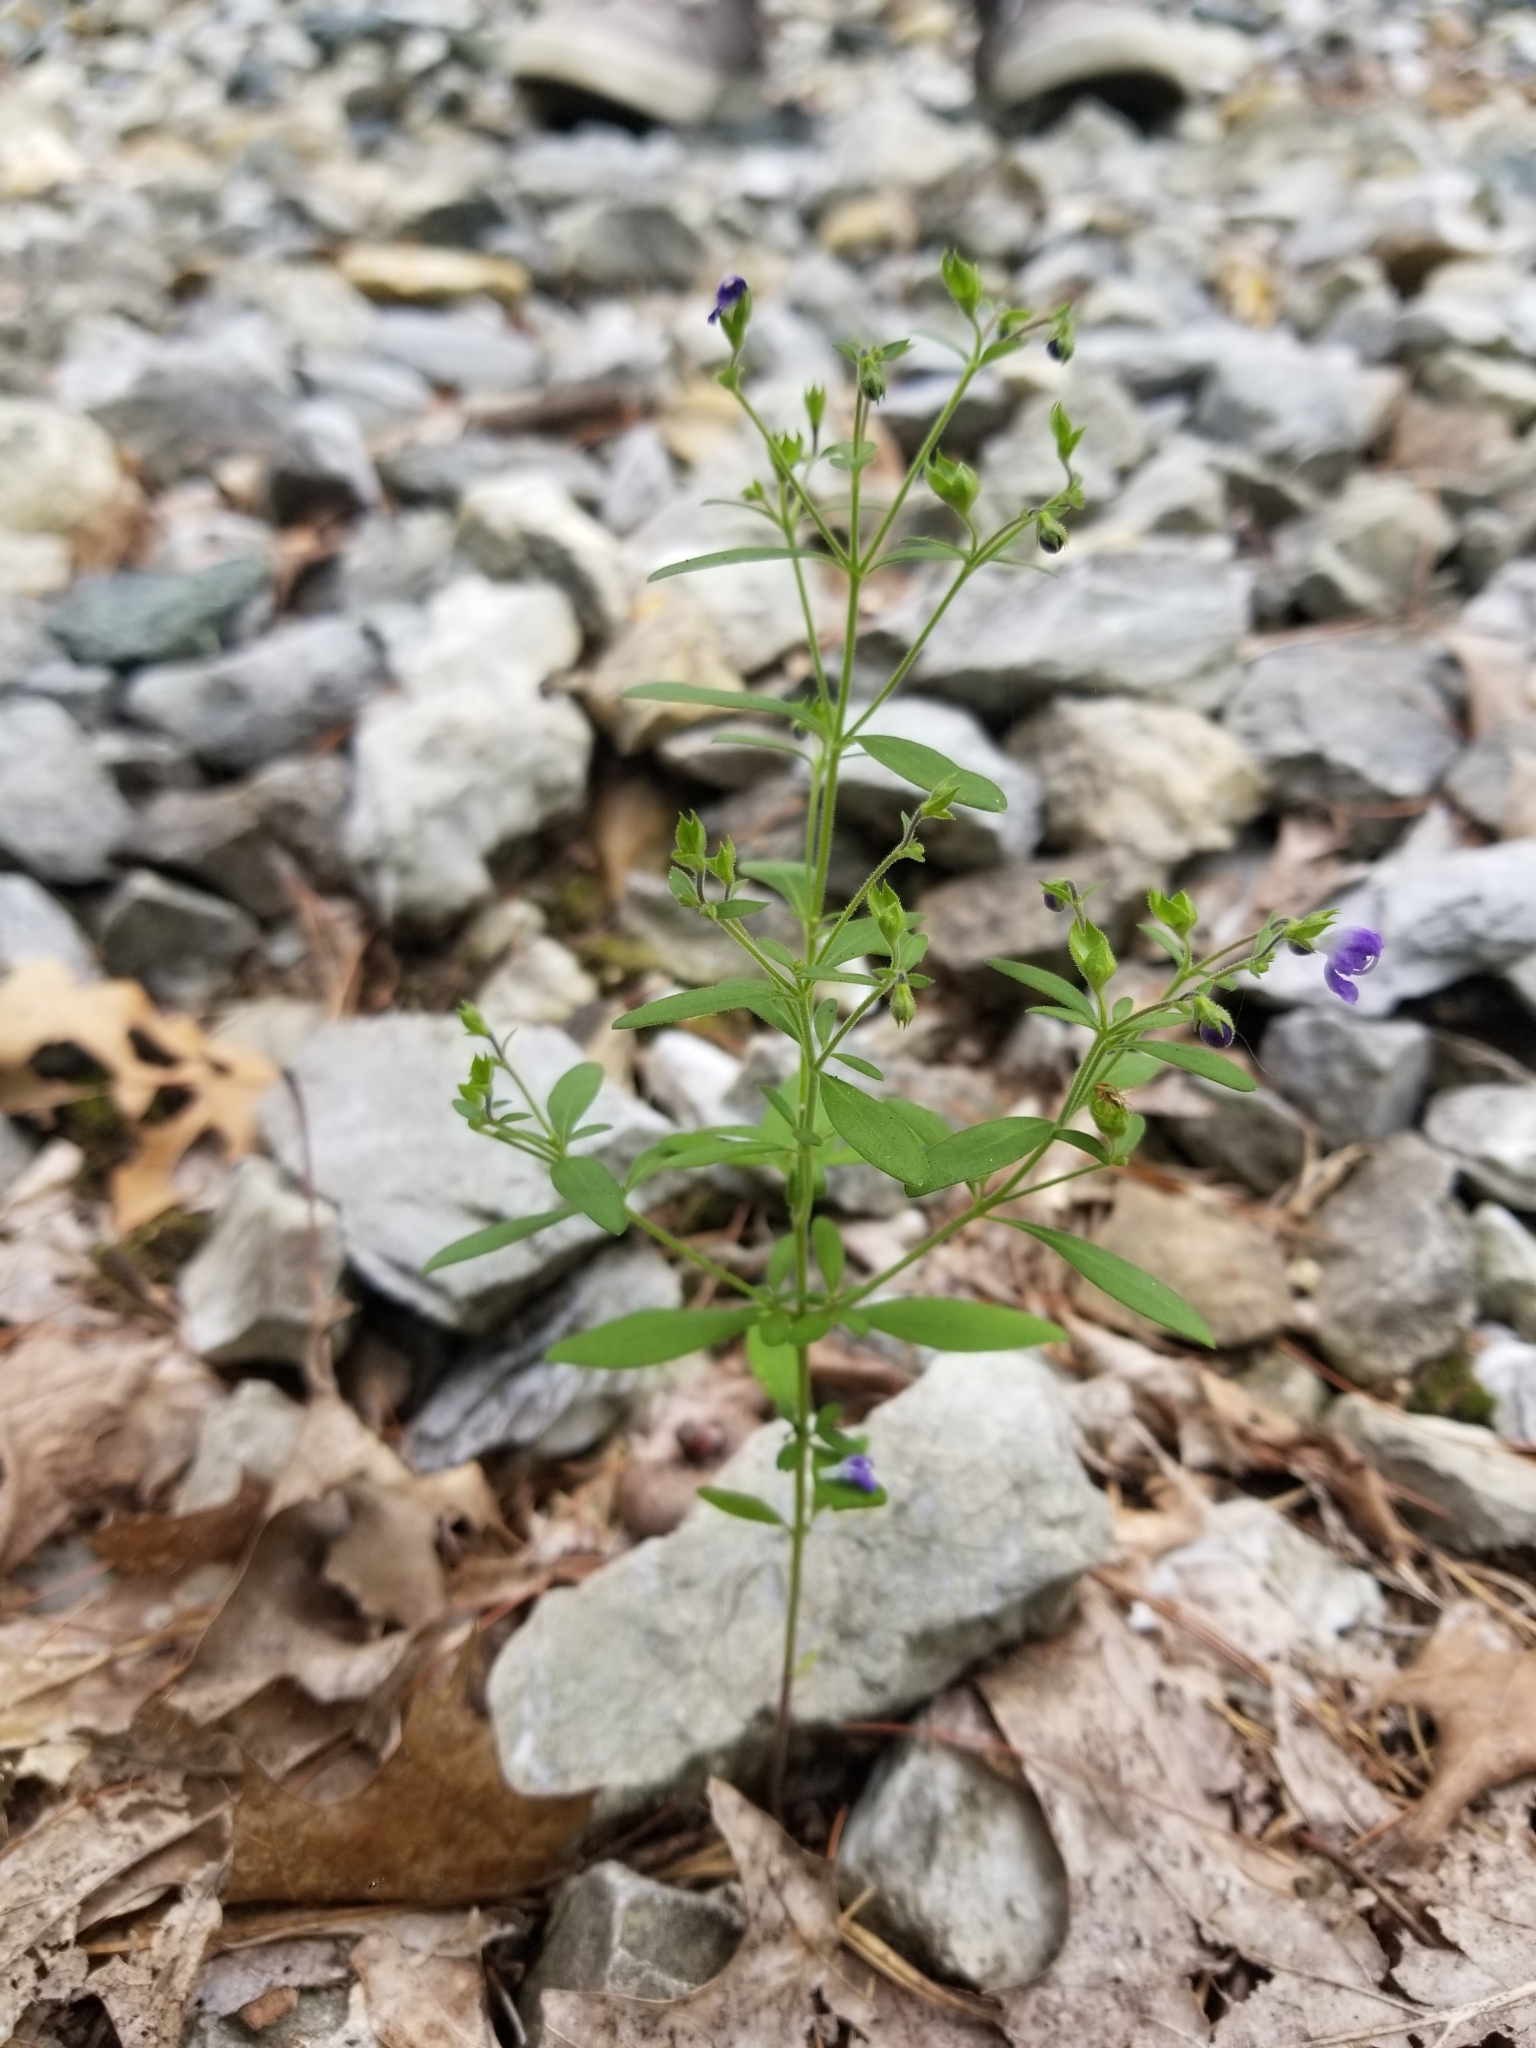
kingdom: Plantae
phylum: Tracheophyta
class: Magnoliopsida
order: Lamiales
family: Lamiaceae
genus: Trichostema
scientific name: Trichostema dichotomum
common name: Bastard pennyroyal
